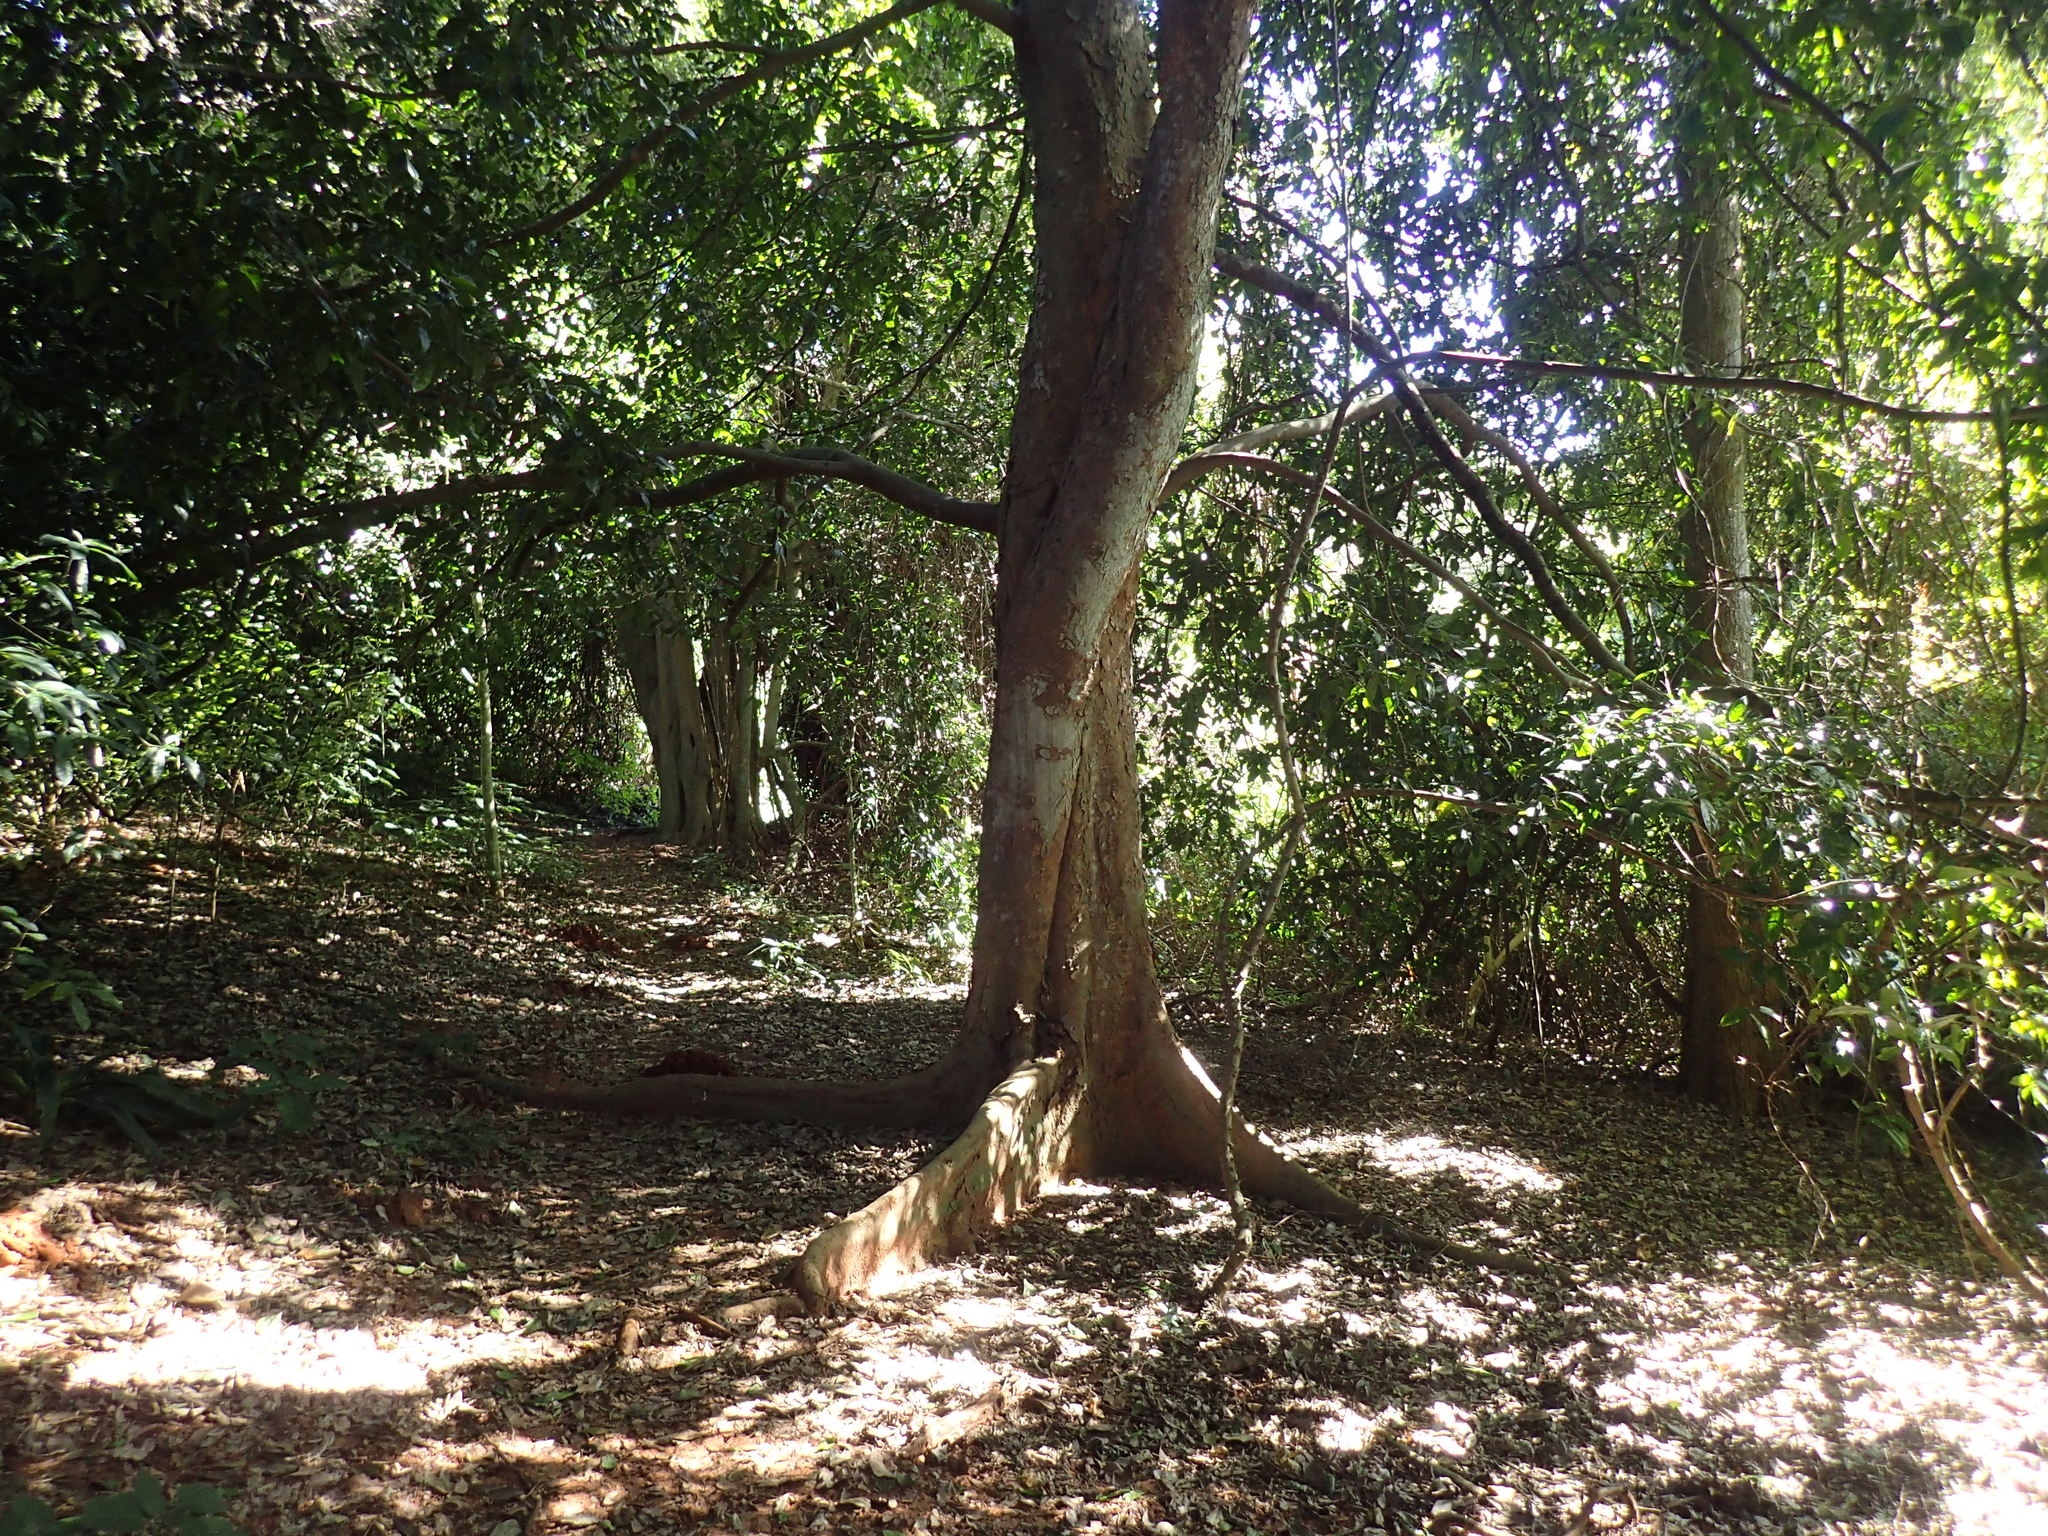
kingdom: Plantae
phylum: Tracheophyta
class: Magnoliopsida
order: Rosales
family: Cannabaceae
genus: Celtis
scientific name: Celtis mildbraedii
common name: Red-fruited stinkwood
